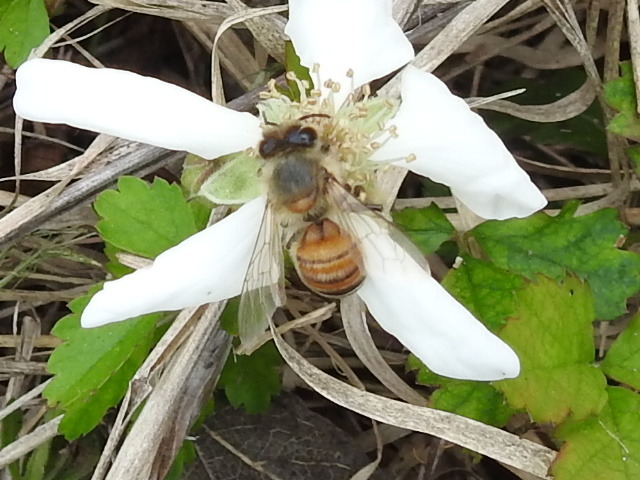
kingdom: Animalia
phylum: Arthropoda
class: Insecta
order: Hymenoptera
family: Apidae
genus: Apis
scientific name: Apis mellifera
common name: Honey bee
